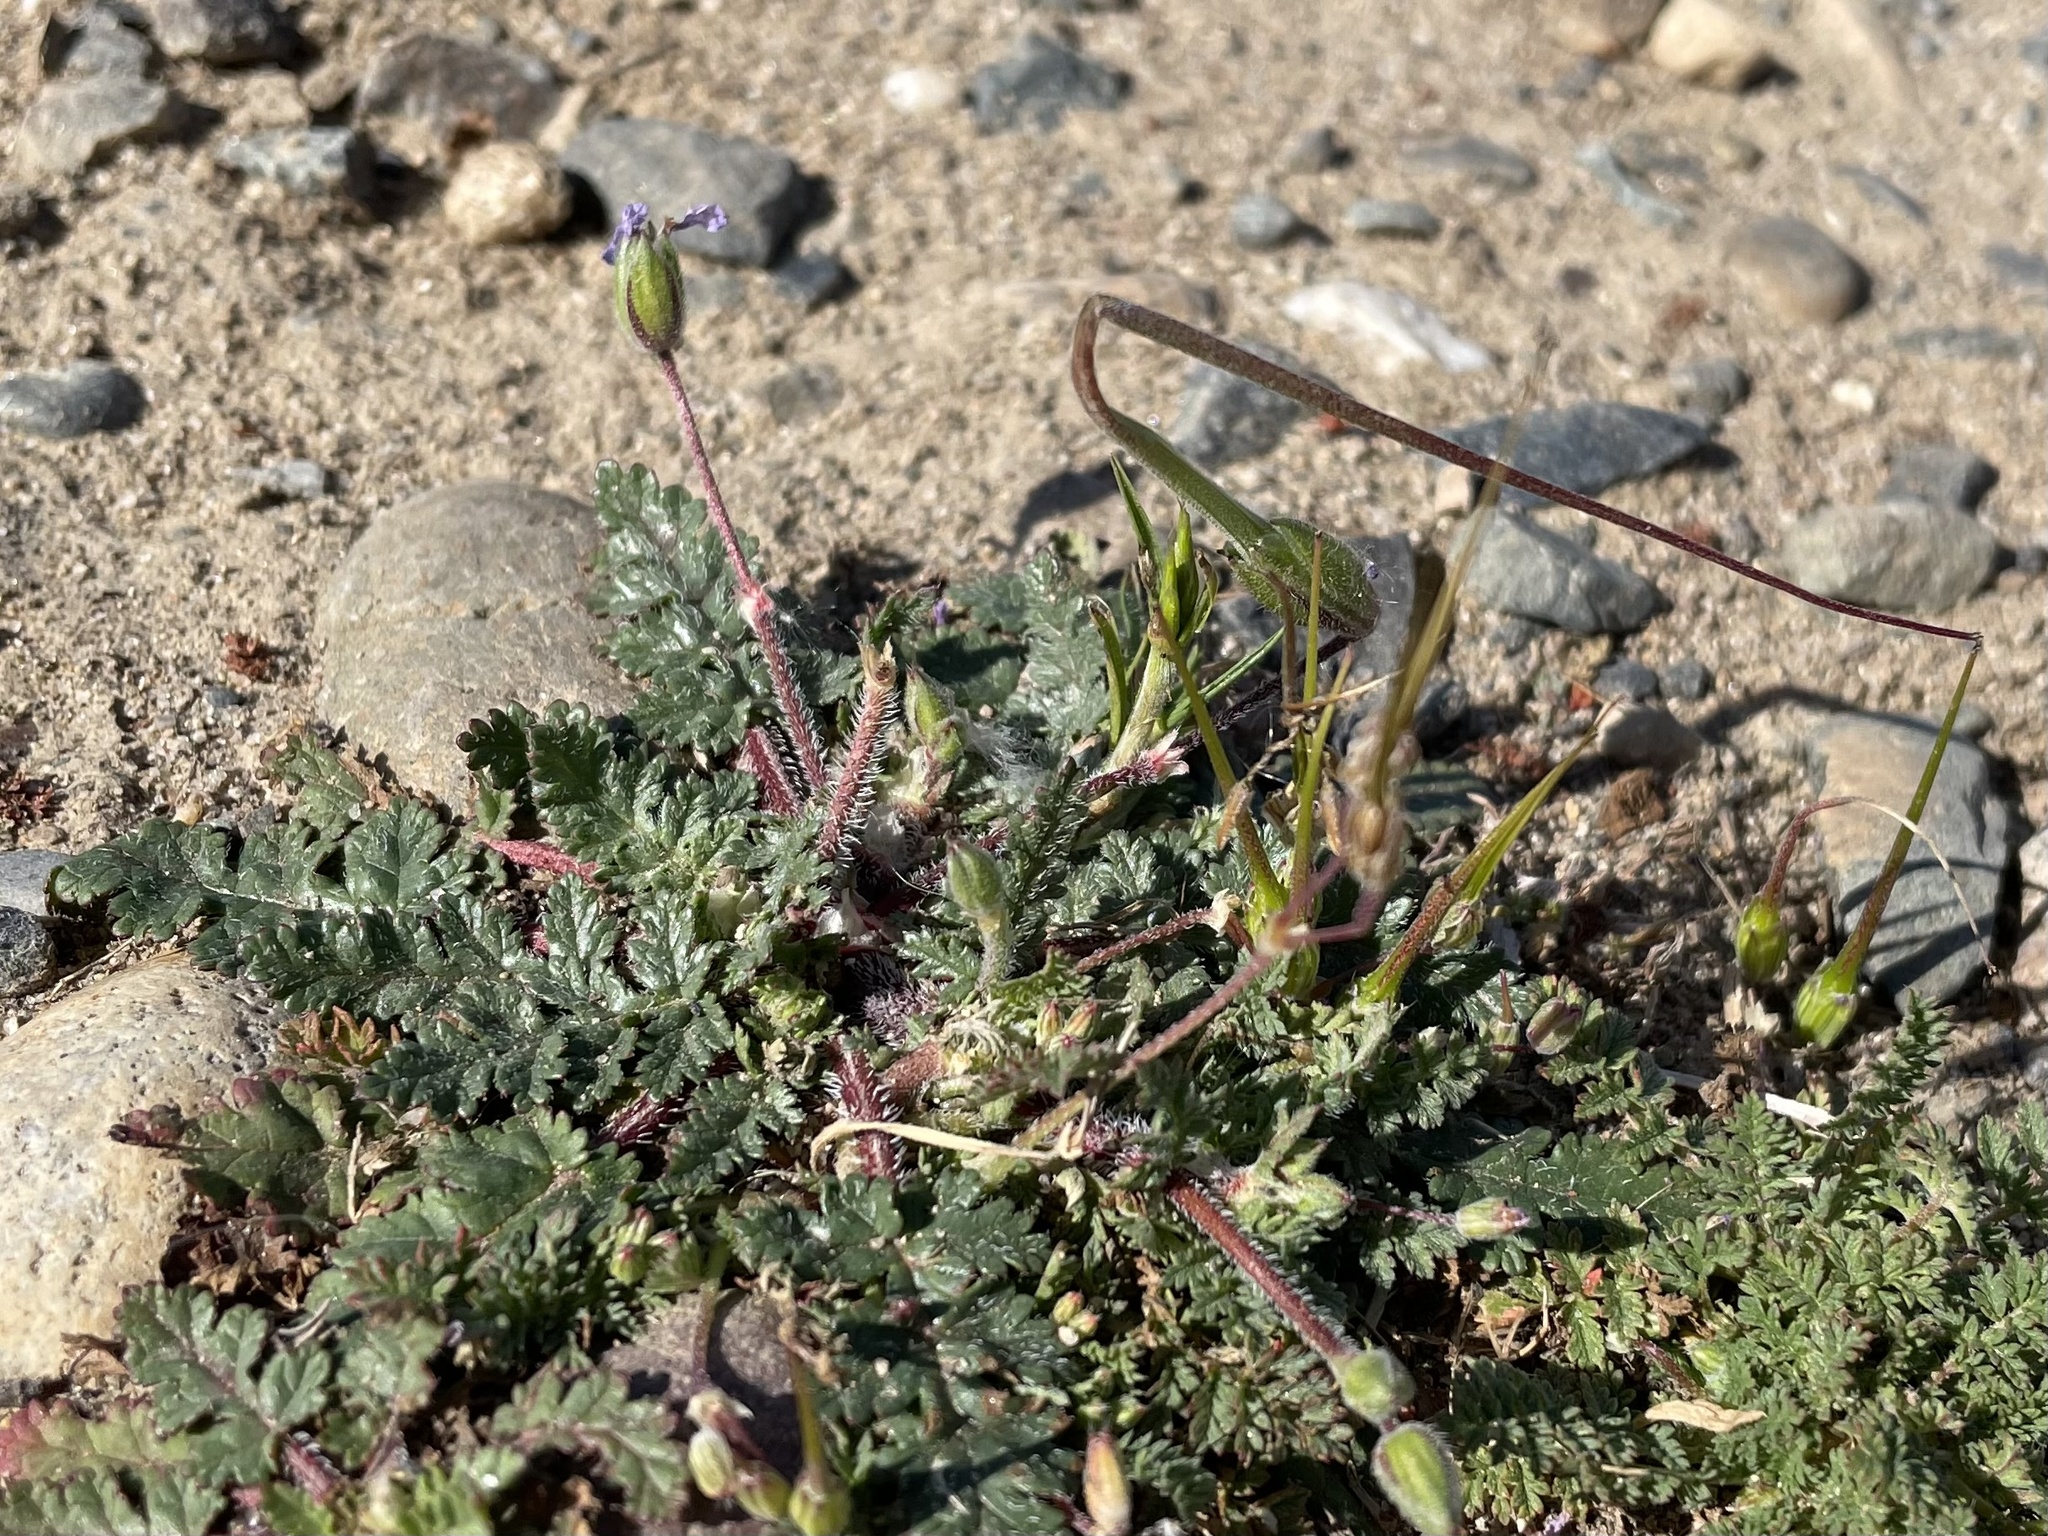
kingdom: Plantae
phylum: Tracheophyta
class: Magnoliopsida
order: Geraniales
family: Geraniaceae
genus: Erodium
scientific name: Erodium botrys
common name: Mediterranean stork's-bill
